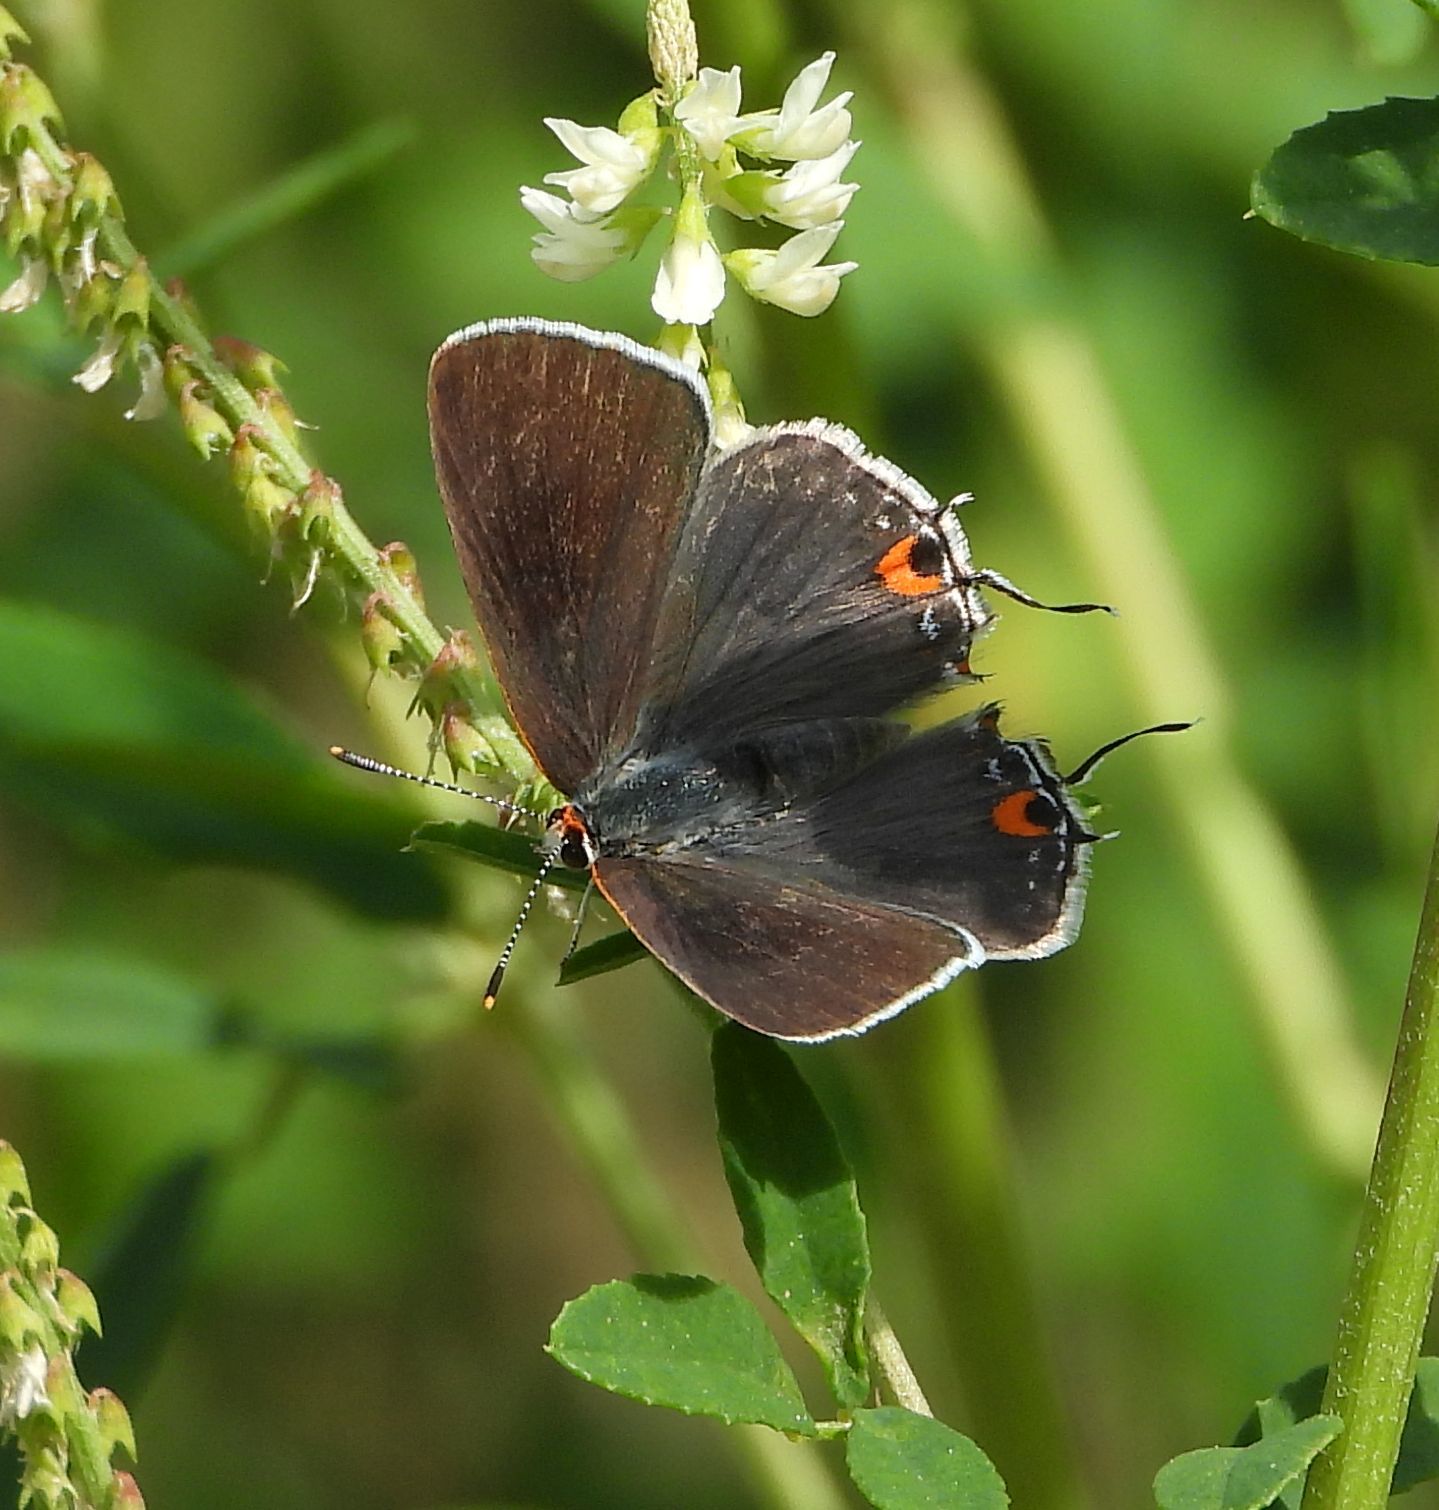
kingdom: Animalia
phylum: Arthropoda
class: Insecta
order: Lepidoptera
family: Lycaenidae
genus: Strymon
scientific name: Strymon melinus
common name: Gray hairstreak
